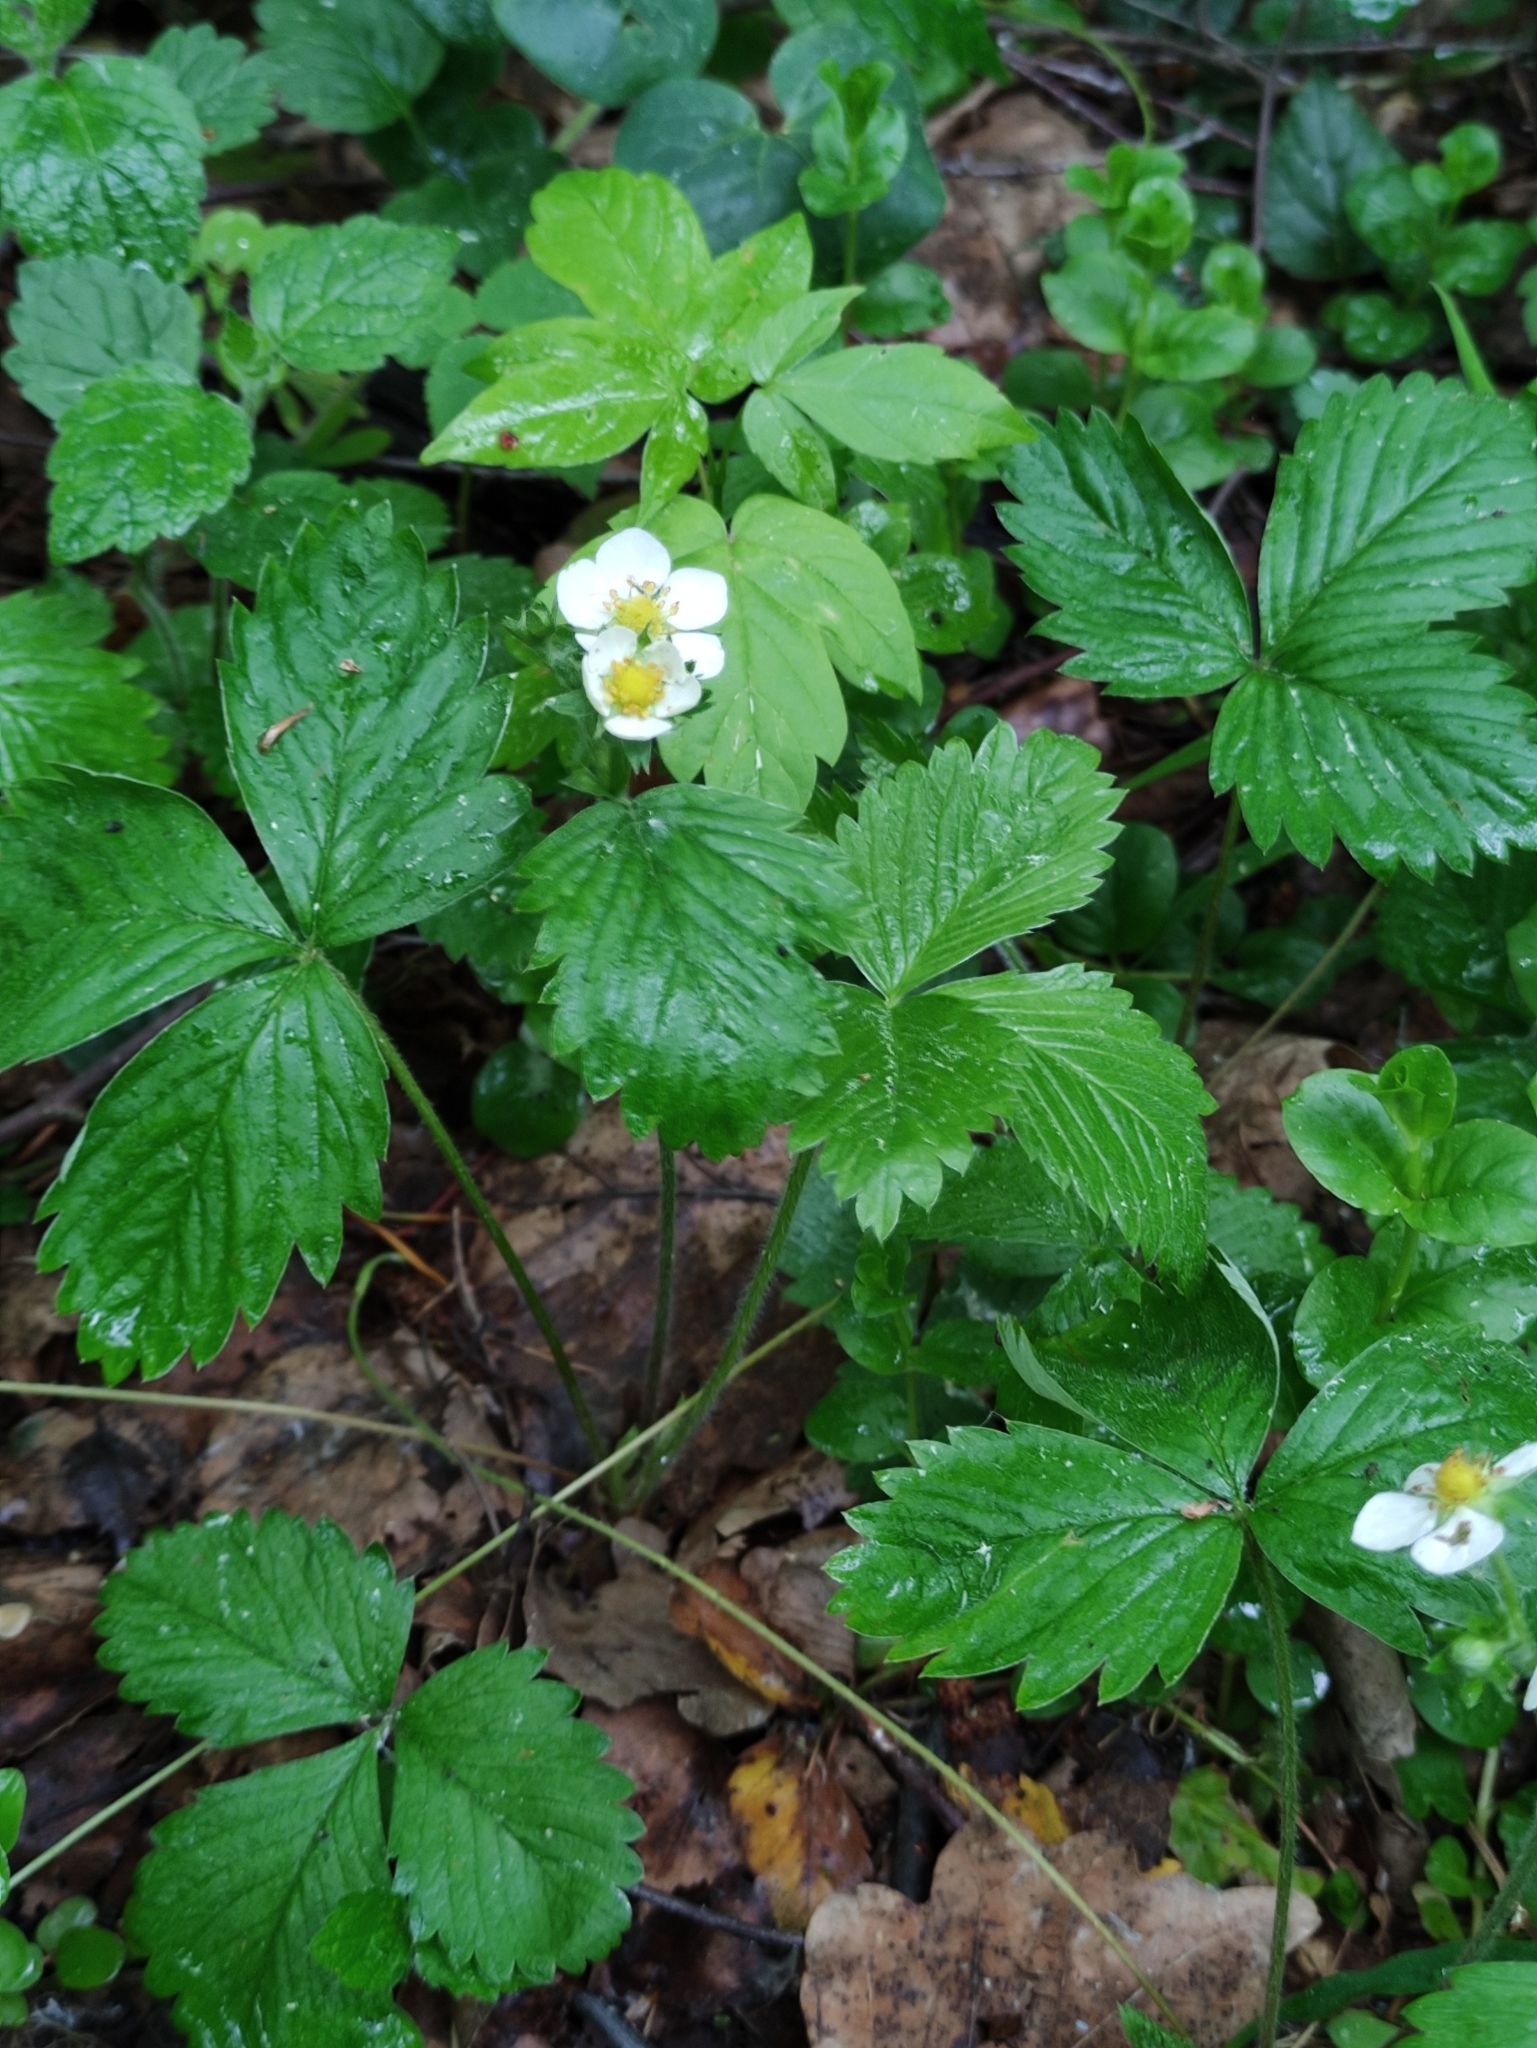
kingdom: Plantae
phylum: Tracheophyta
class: Magnoliopsida
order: Rosales
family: Rosaceae
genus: Fragaria
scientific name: Fragaria vesca
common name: Wild strawberry
